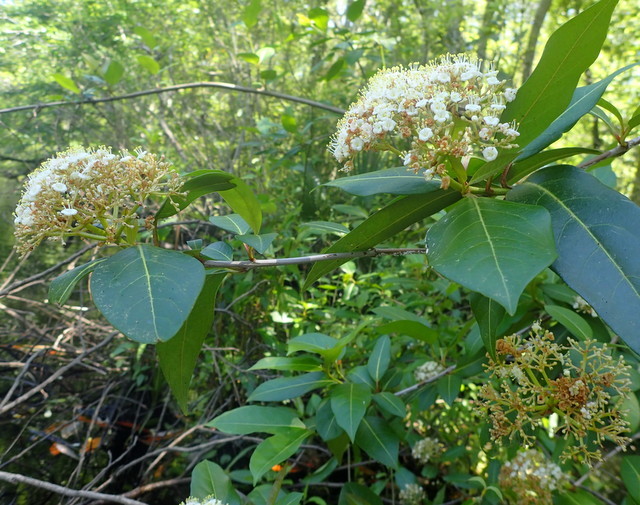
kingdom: Plantae
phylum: Tracheophyta
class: Magnoliopsida
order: Dipsacales
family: Viburnaceae
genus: Viburnum
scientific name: Viburnum nudum
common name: Possum haw
